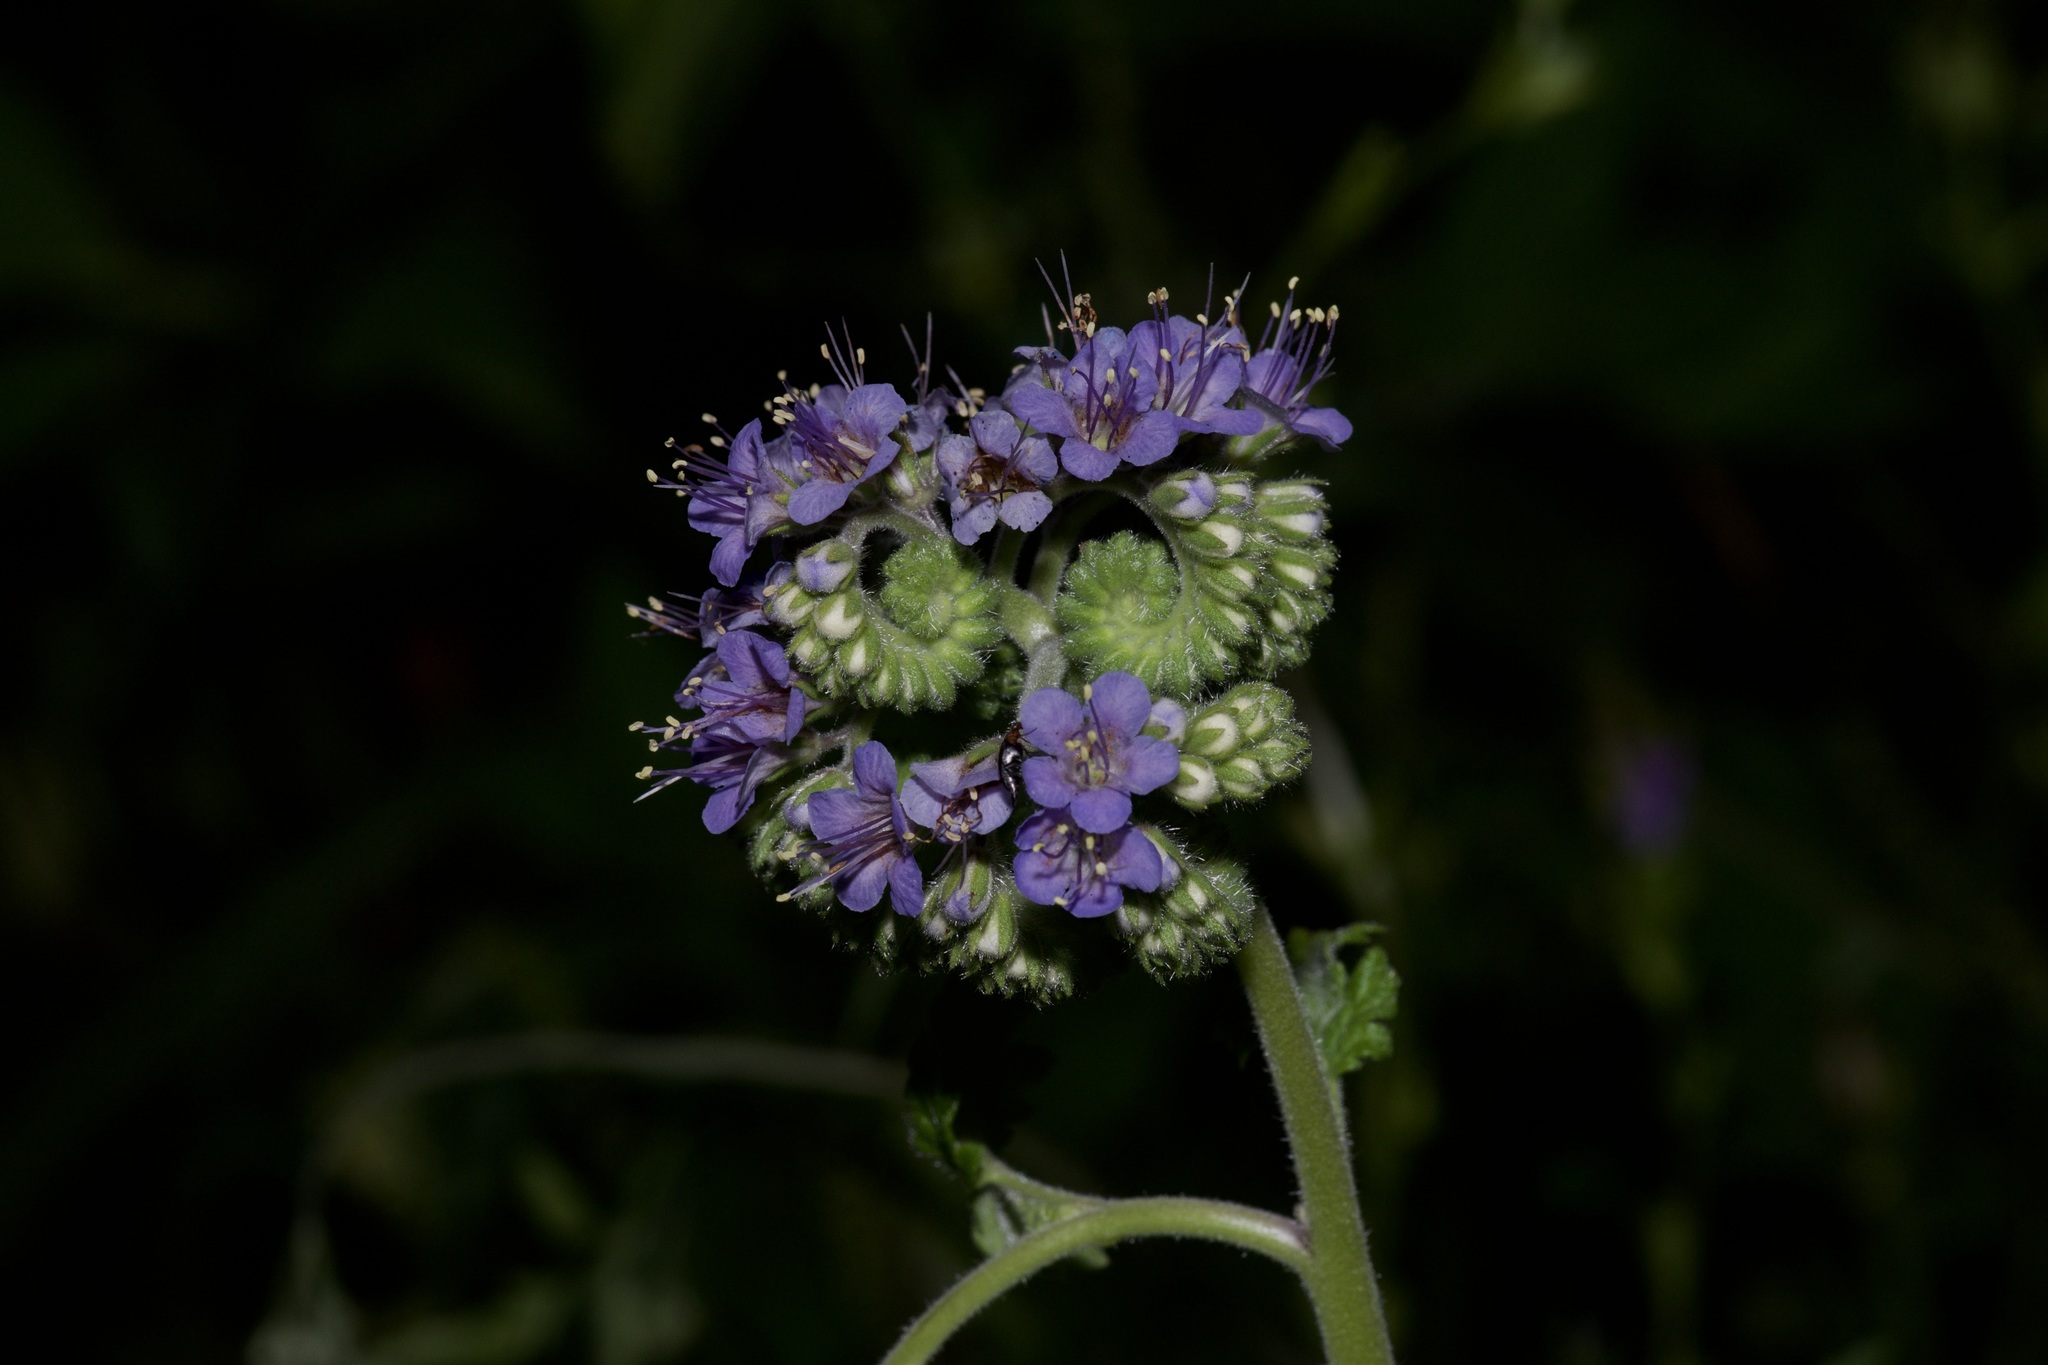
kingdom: Plantae
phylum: Tracheophyta
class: Magnoliopsida
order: Boraginales
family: Hydrophyllaceae
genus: Phacelia
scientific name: Phacelia congesta
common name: Blue curls
